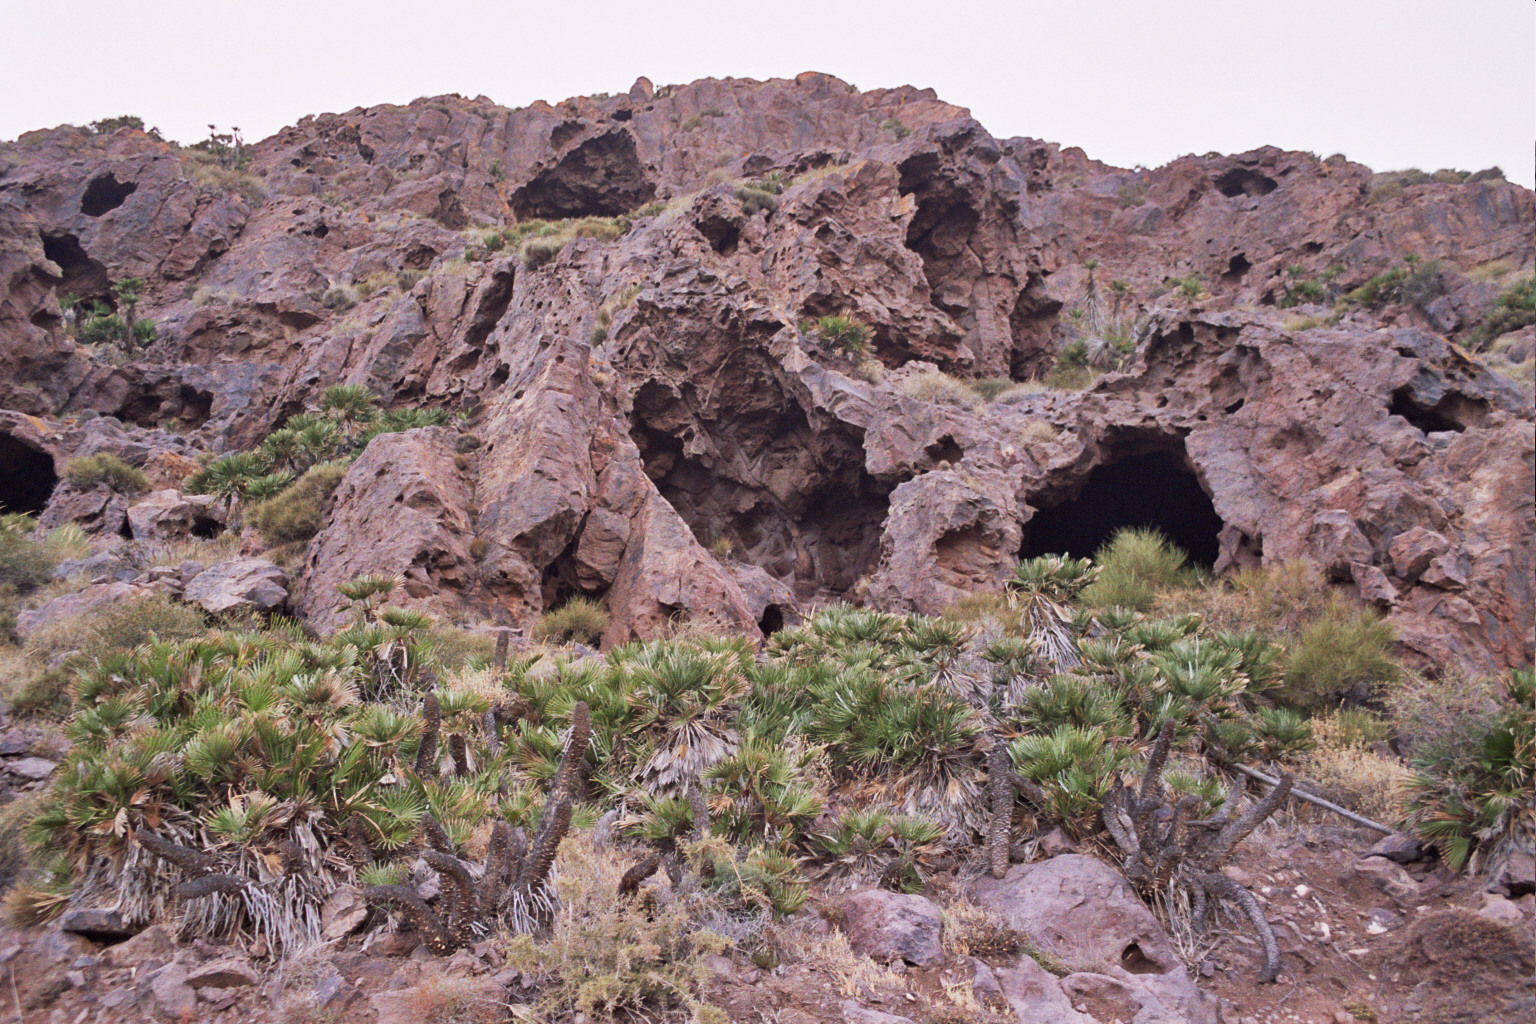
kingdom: Plantae
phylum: Tracheophyta
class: Liliopsida
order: Arecales
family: Arecaceae
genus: Chamaerops
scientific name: Chamaerops humilis
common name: Dwarf fan palm
